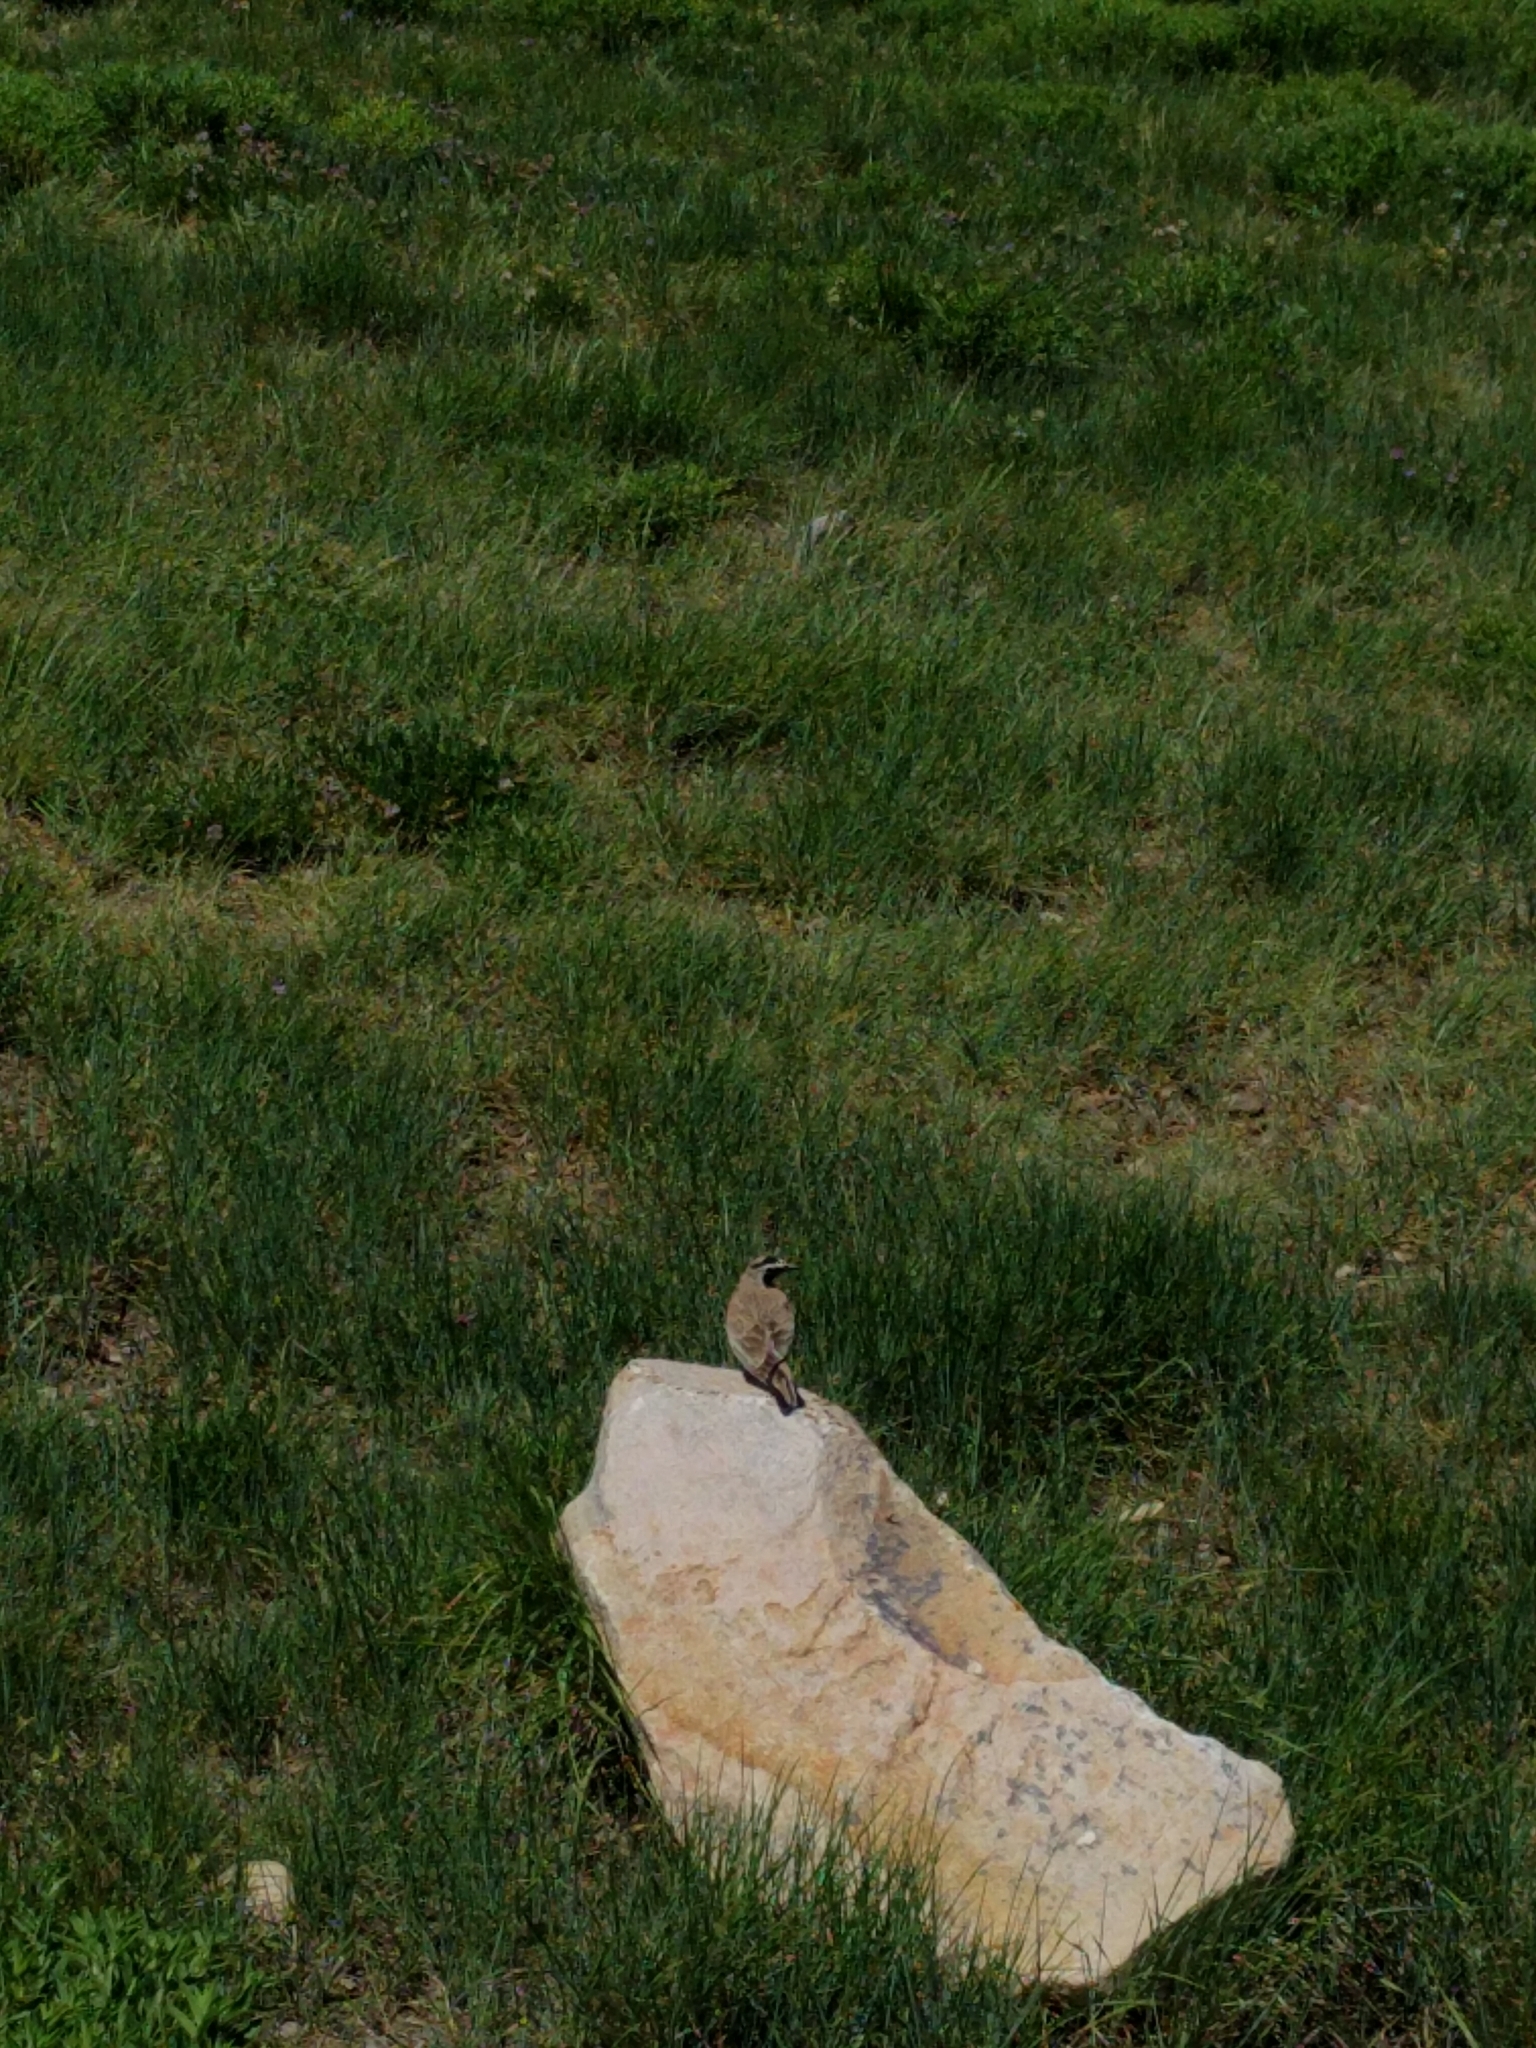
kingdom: Animalia
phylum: Chordata
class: Aves
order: Passeriformes
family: Alaudidae
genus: Eremophila
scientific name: Eremophila alpestris
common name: Horned lark
